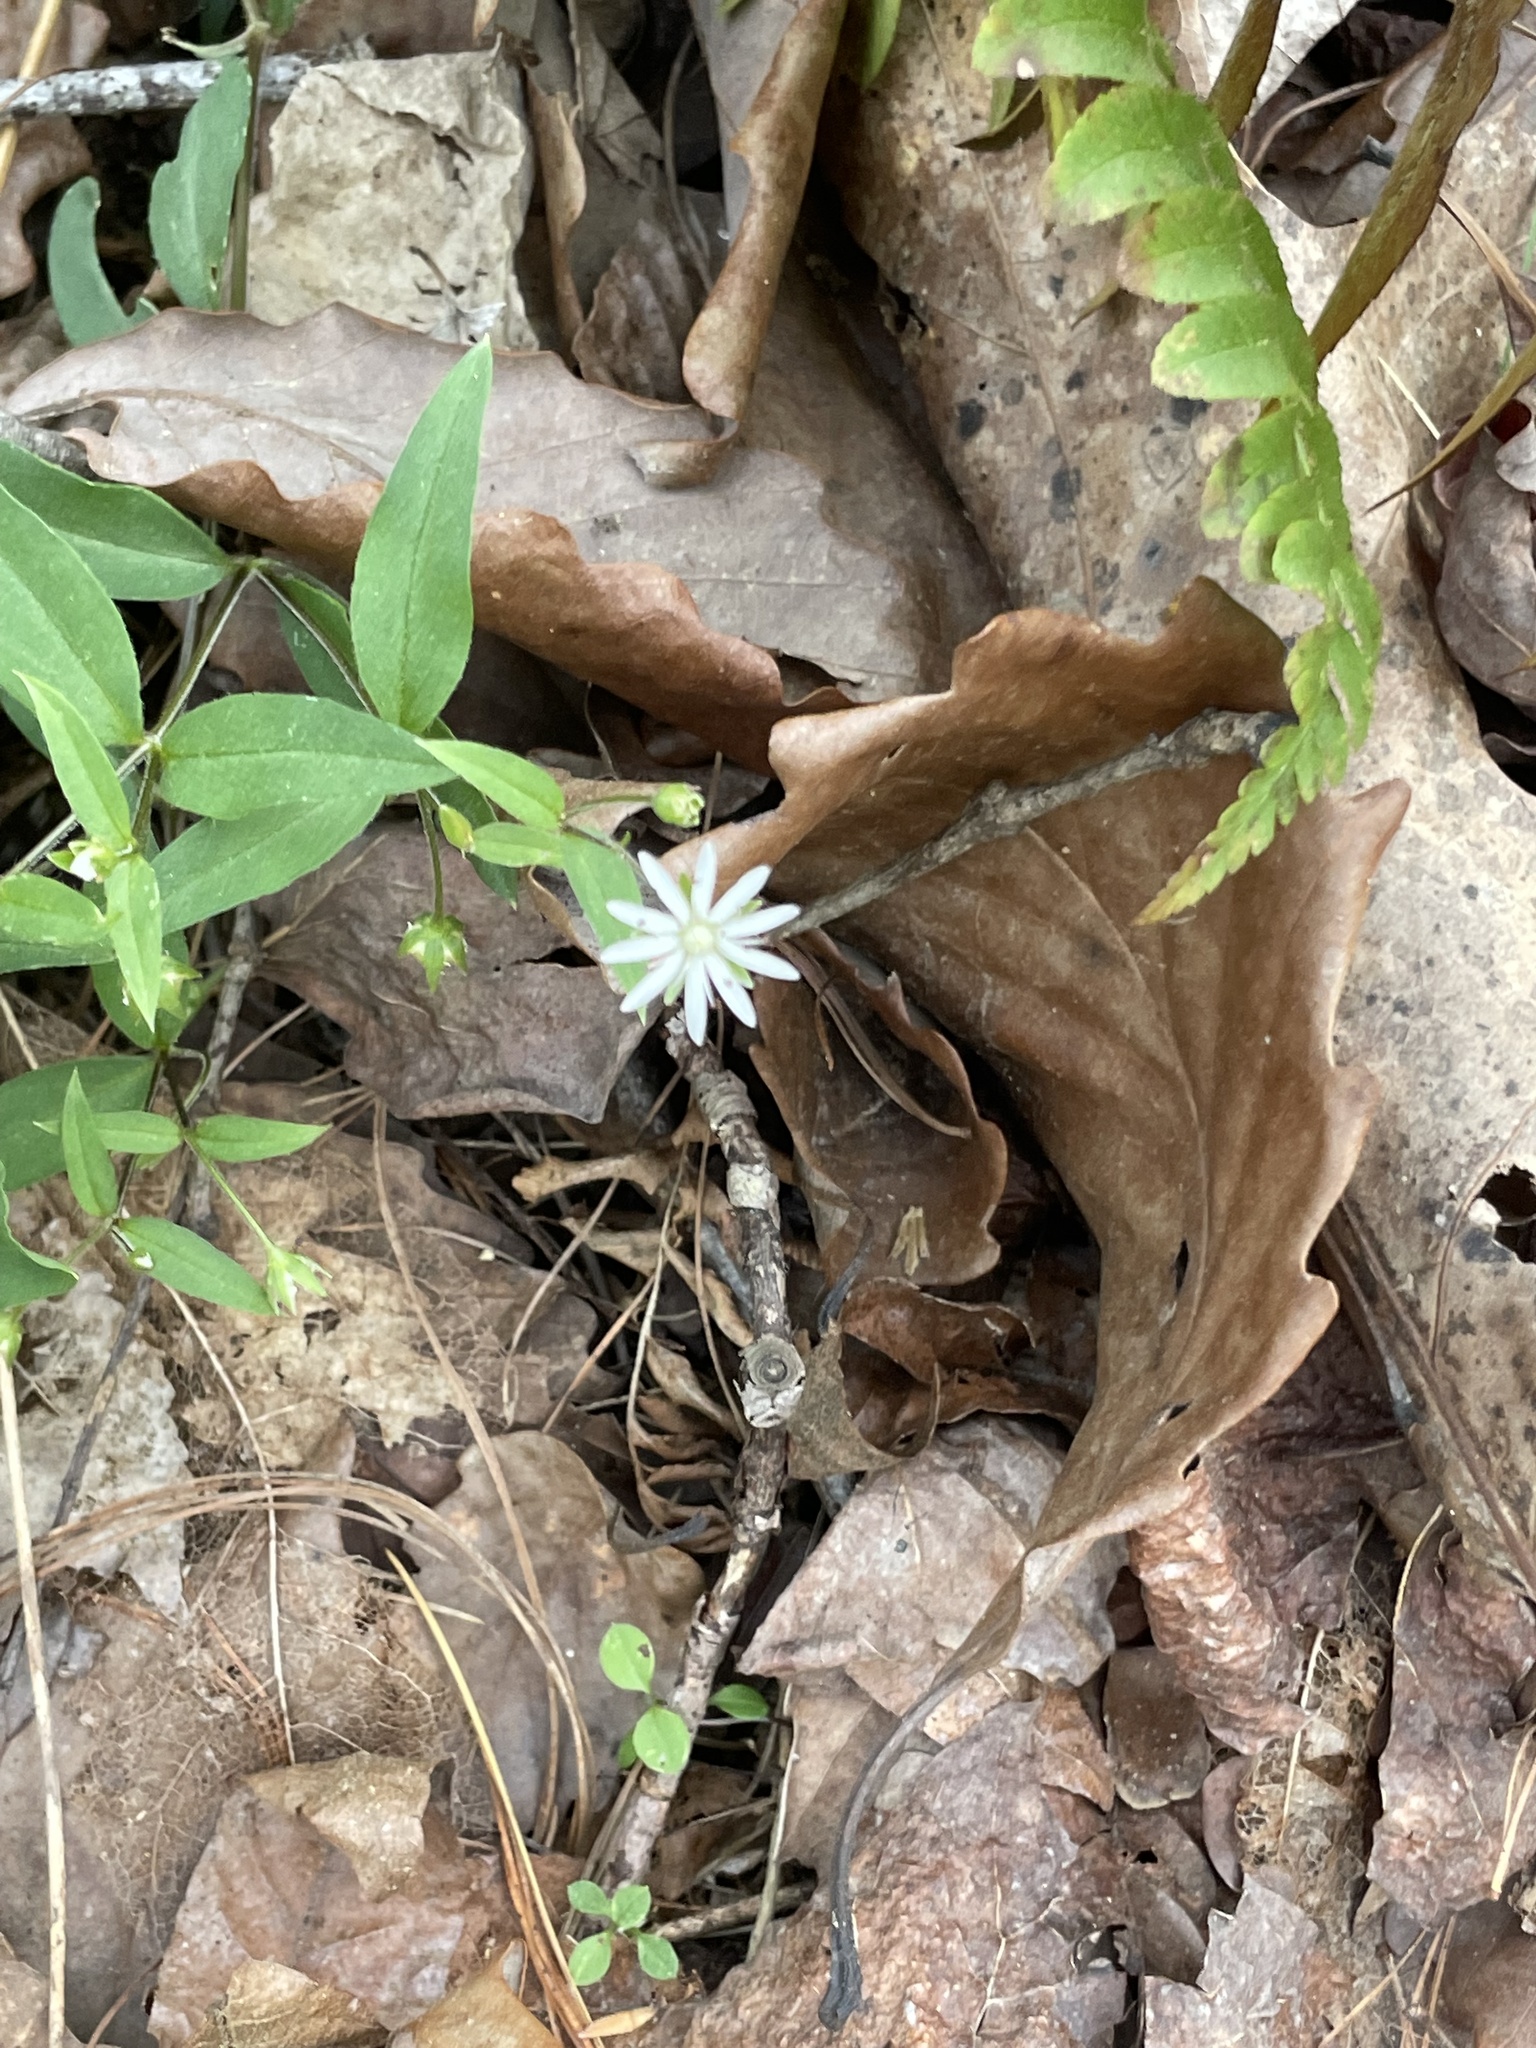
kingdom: Plantae
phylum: Tracheophyta
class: Magnoliopsida
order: Caryophyllales
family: Caryophyllaceae
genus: Stellaria
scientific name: Stellaria pubera
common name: Star chickweed
